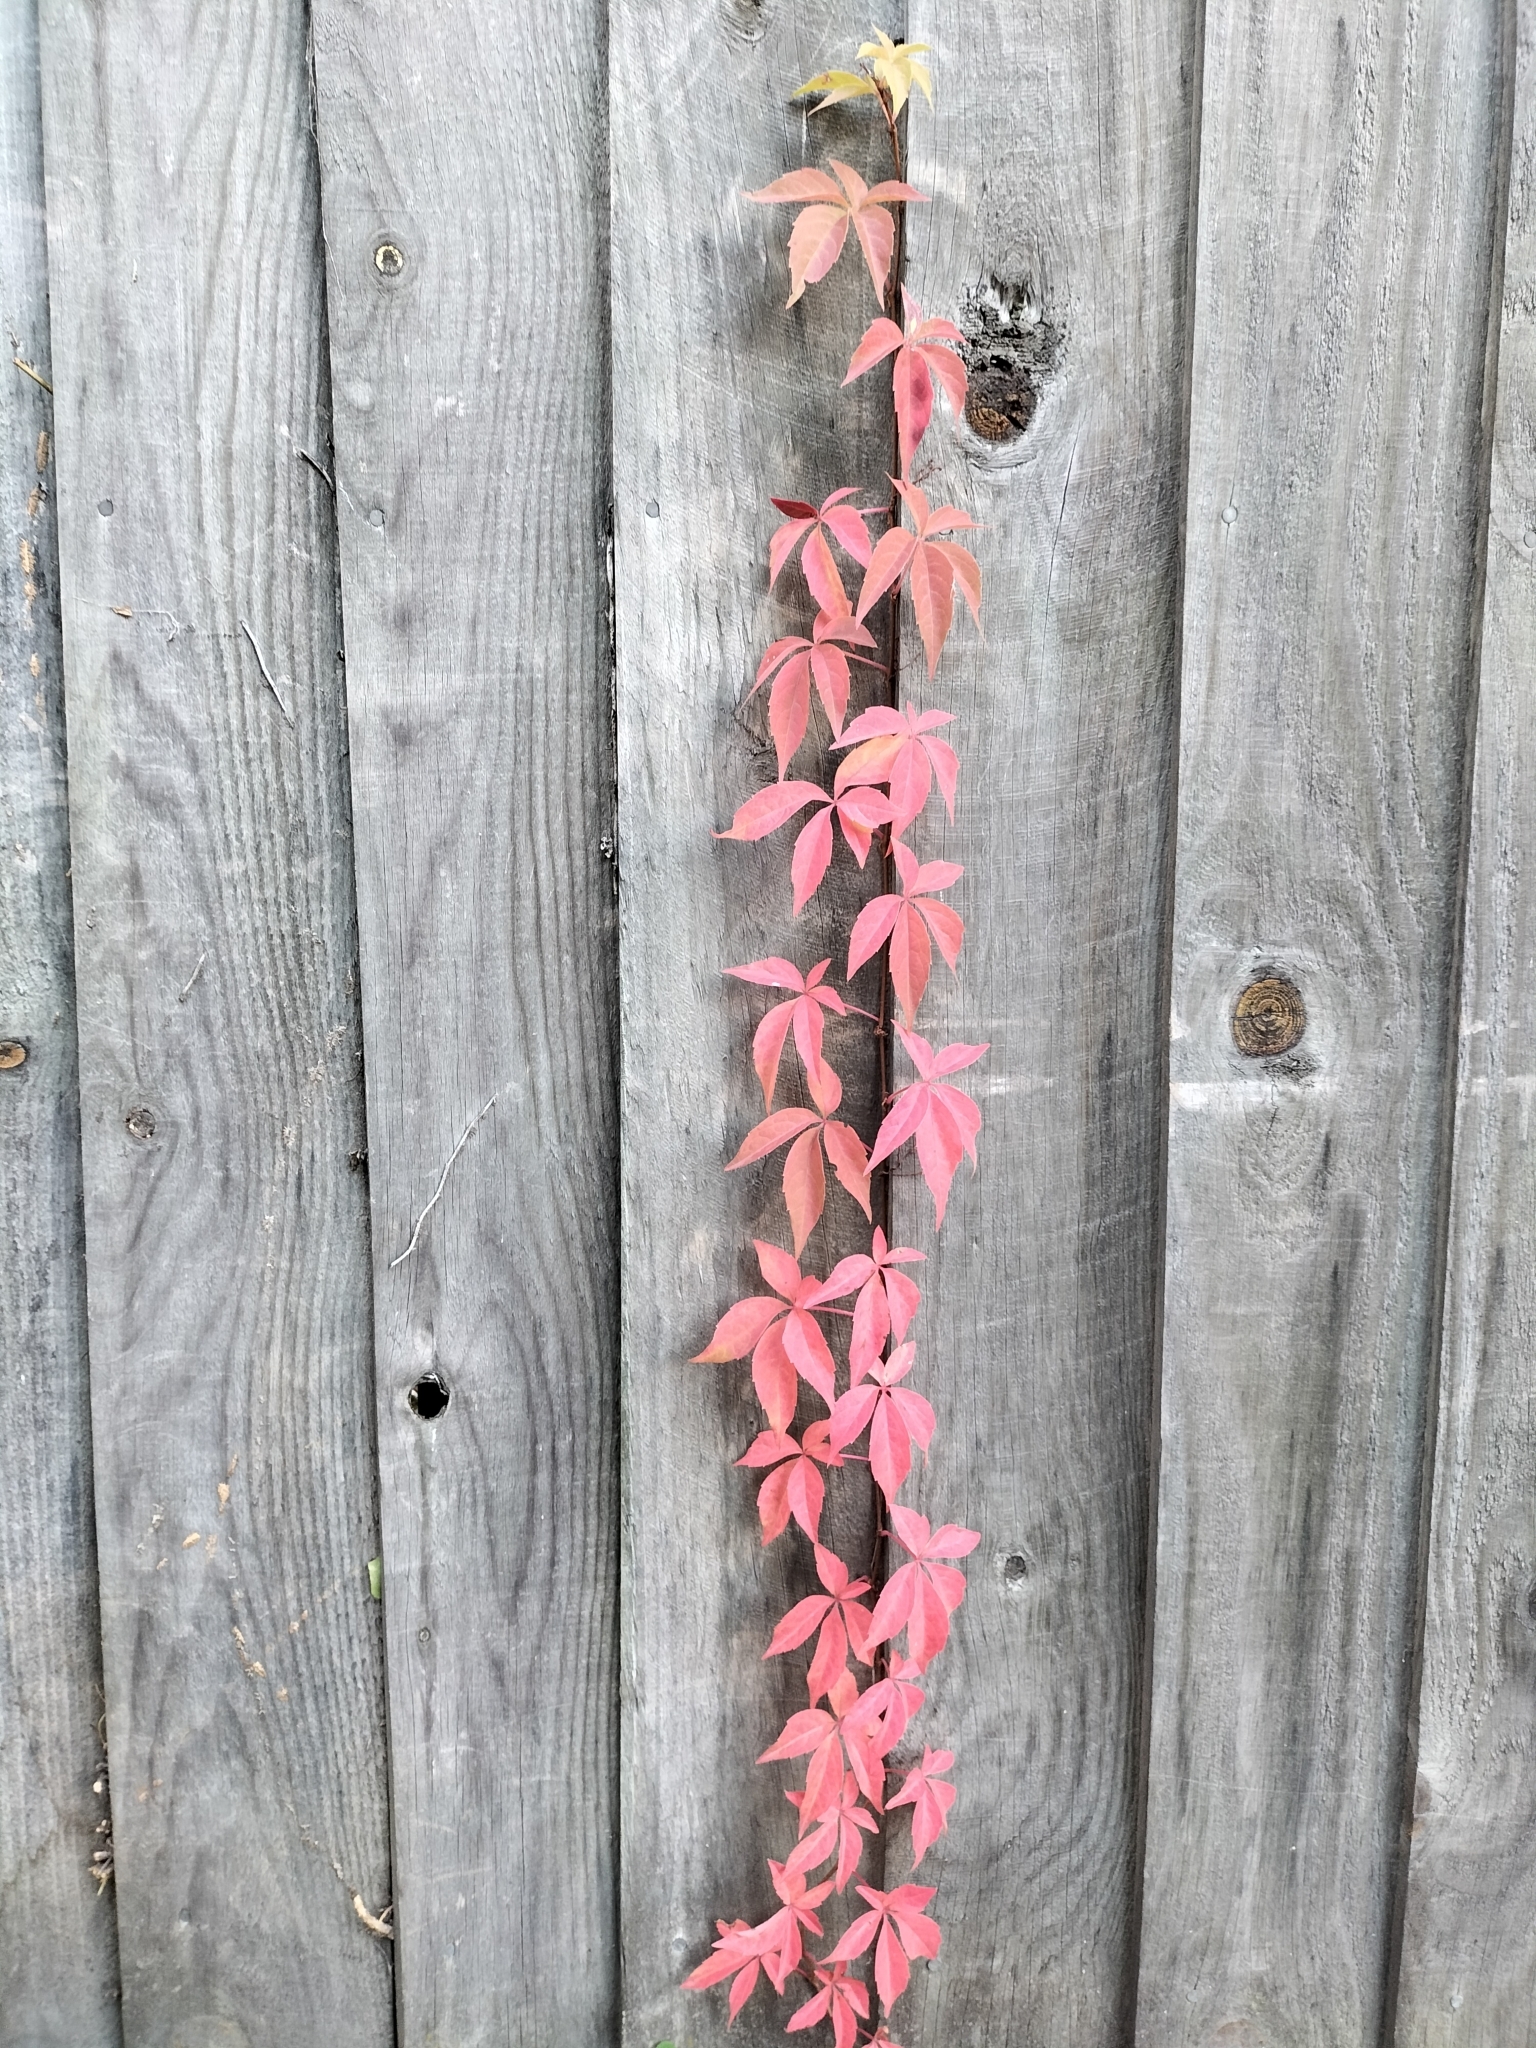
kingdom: Plantae
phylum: Tracheophyta
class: Magnoliopsida
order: Vitales
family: Vitaceae
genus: Parthenocissus
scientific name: Parthenocissus quinquefolia
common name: Virginia-creeper
